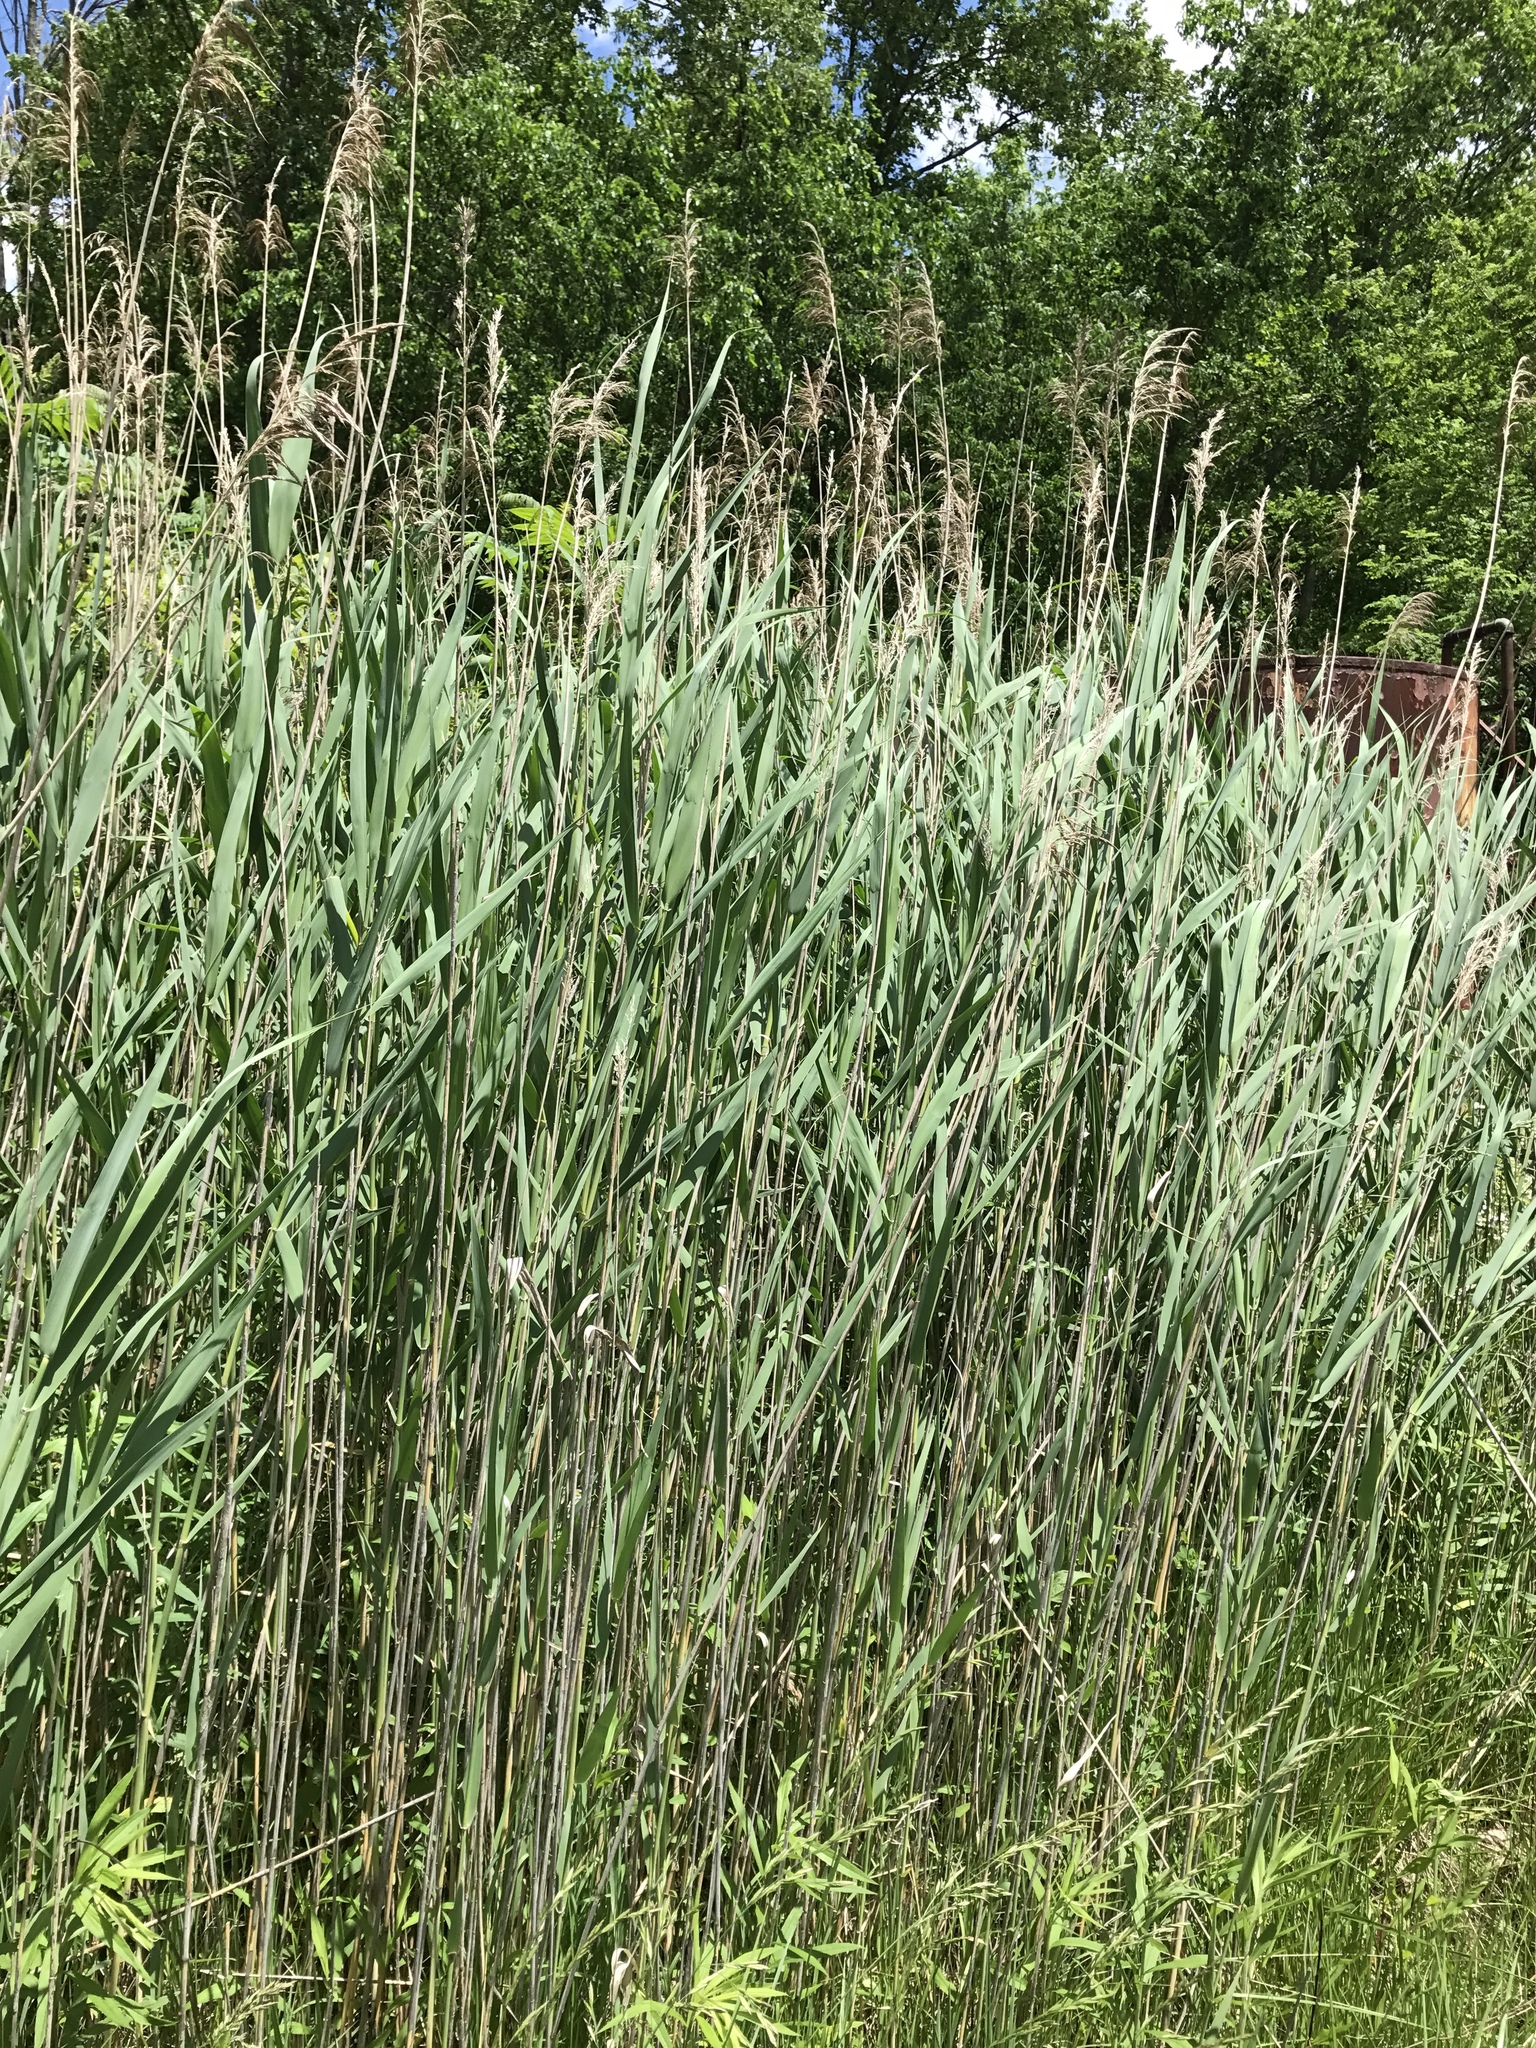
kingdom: Plantae
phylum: Tracheophyta
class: Liliopsida
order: Poales
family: Poaceae
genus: Phragmites
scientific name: Phragmites australis
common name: Common reed
